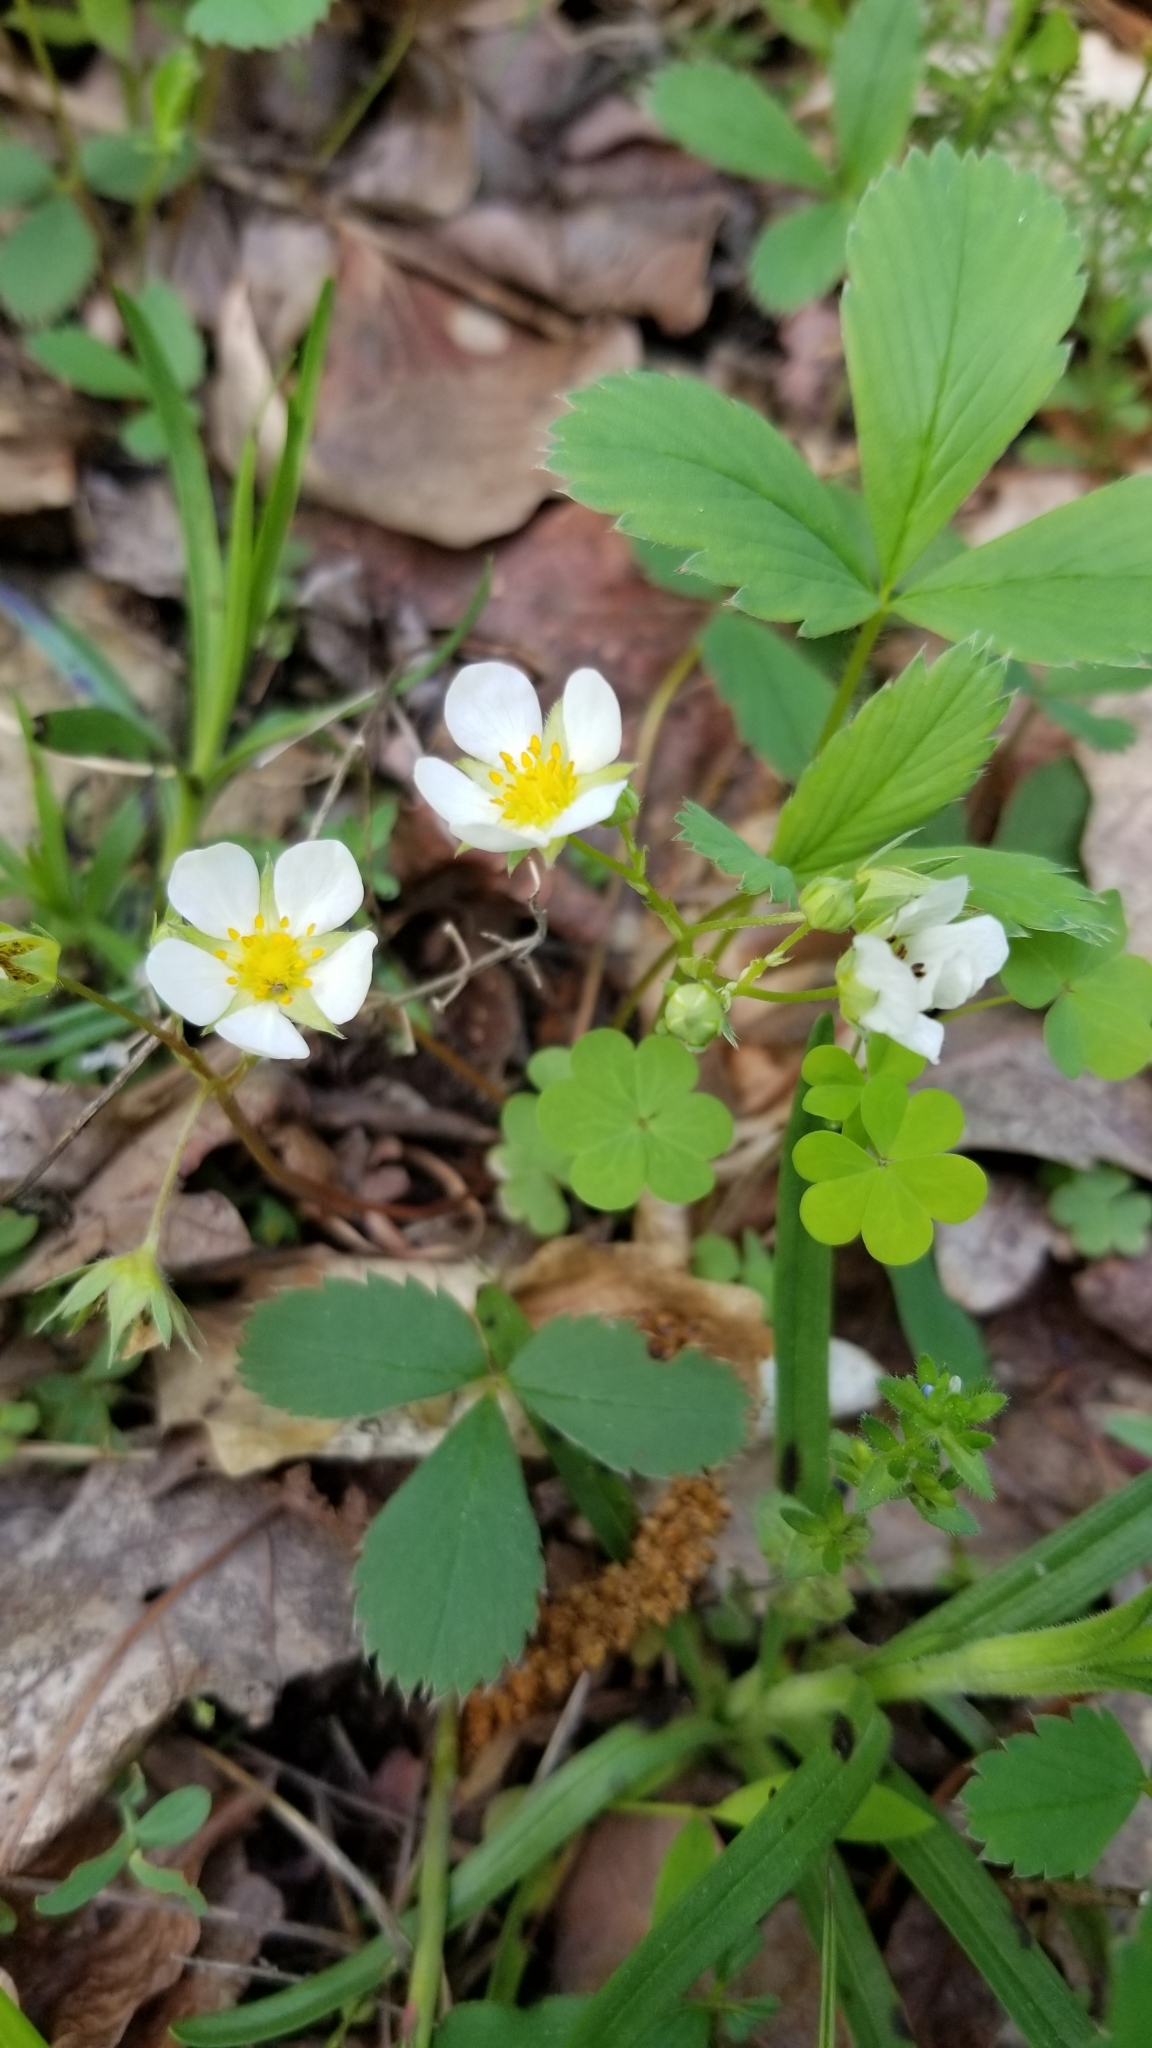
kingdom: Plantae
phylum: Tracheophyta
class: Magnoliopsida
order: Rosales
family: Rosaceae
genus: Fragaria
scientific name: Fragaria virginiana
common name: Thickleaved wild strawberry
